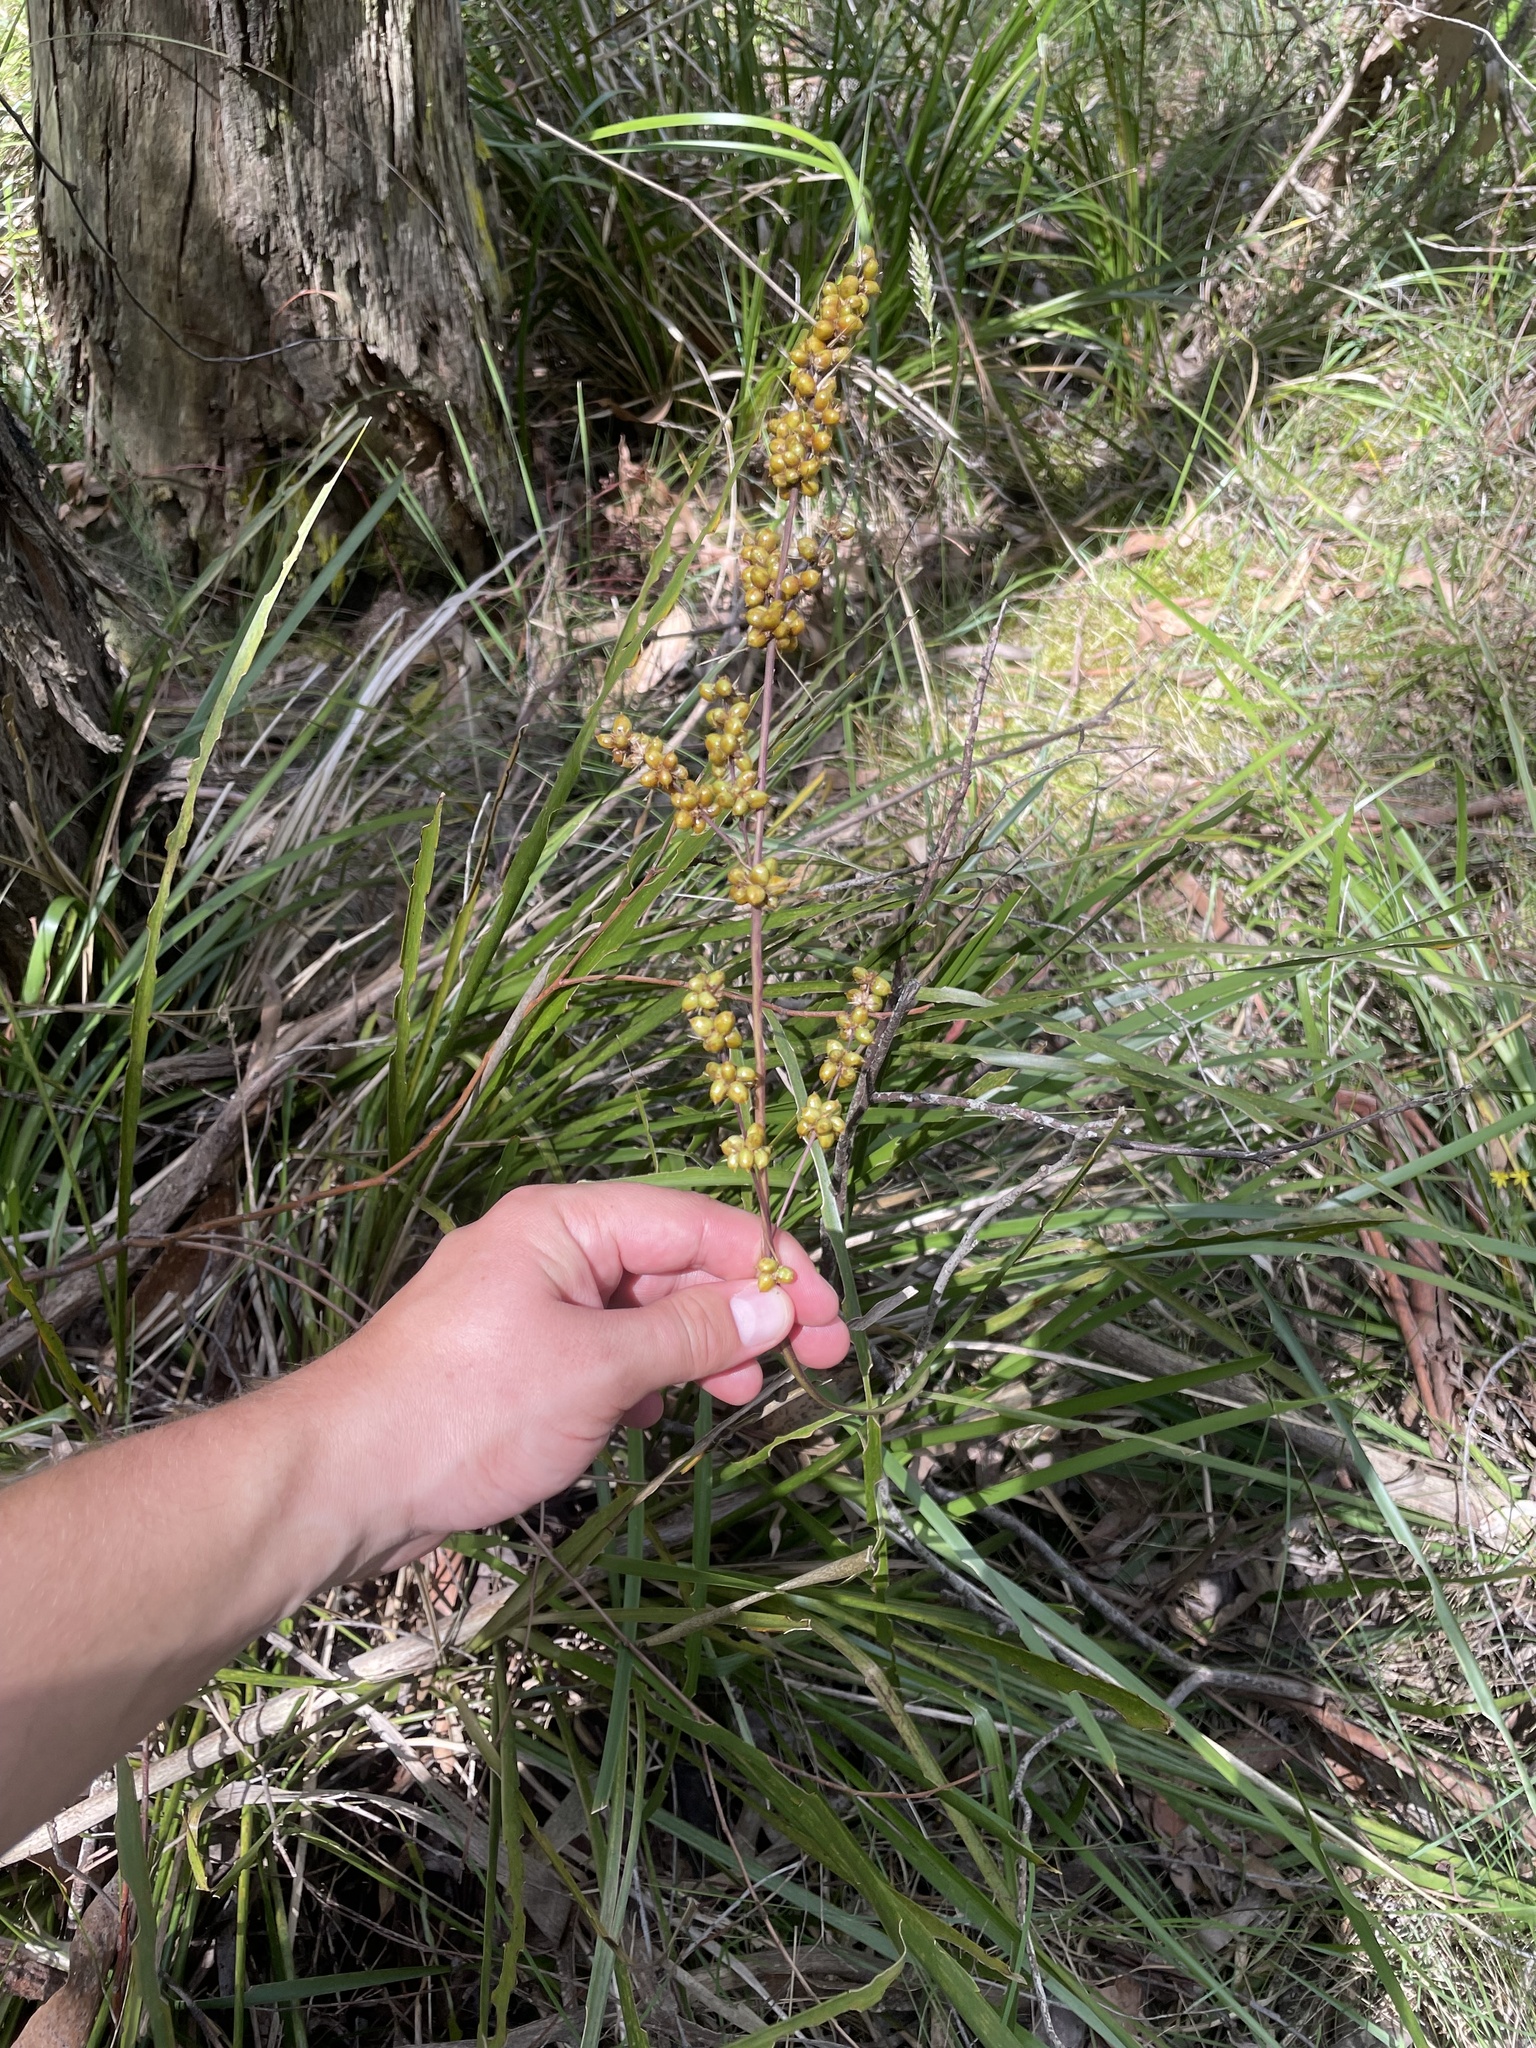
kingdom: Plantae
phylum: Tracheophyta
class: Liliopsida
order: Asparagales
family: Asparagaceae
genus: Lomandra
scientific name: Lomandra longifolia
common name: Longleaf mat-rush
